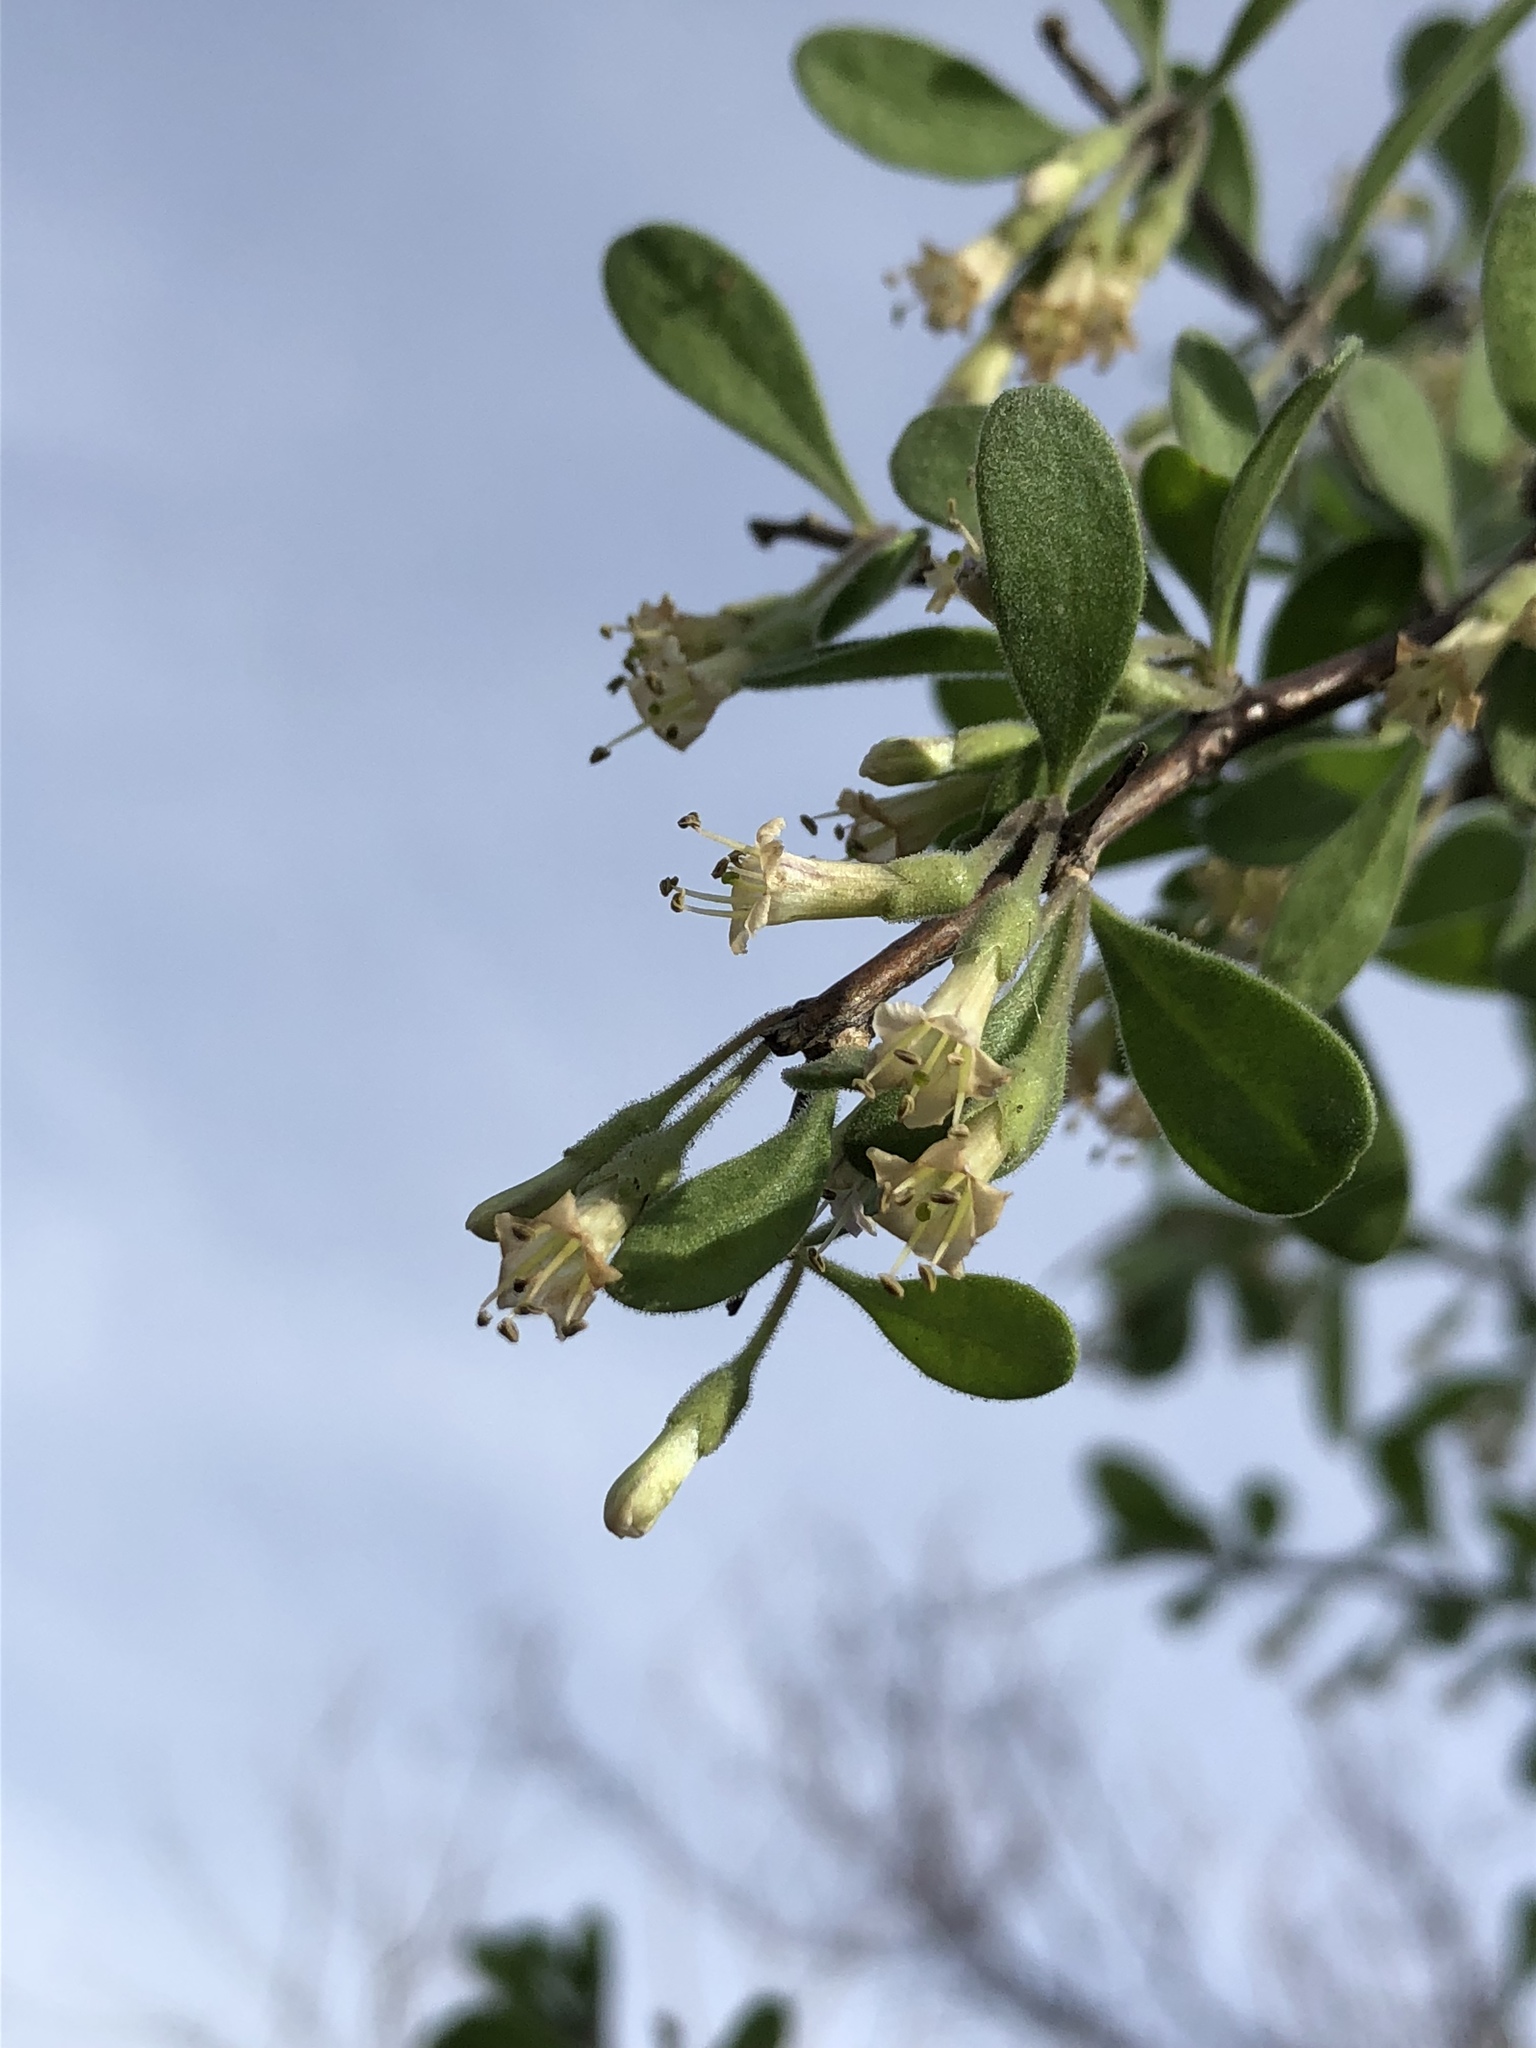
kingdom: Plantae
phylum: Tracheophyta
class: Magnoliopsida
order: Solanales
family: Solanaceae
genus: Lycium
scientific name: Lycium berlandieri
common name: Berlandier wolfberry
